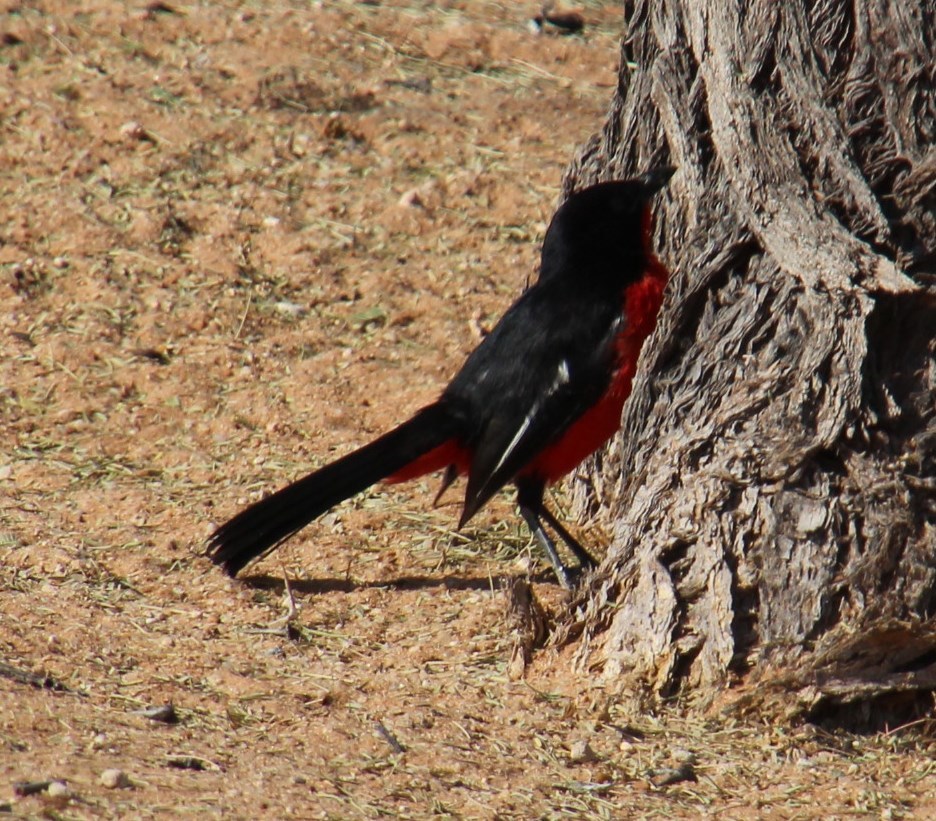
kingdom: Animalia
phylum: Chordata
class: Aves
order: Passeriformes
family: Malaconotidae
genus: Laniarius
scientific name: Laniarius atrococcineus
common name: Crimson-breasted shrike
